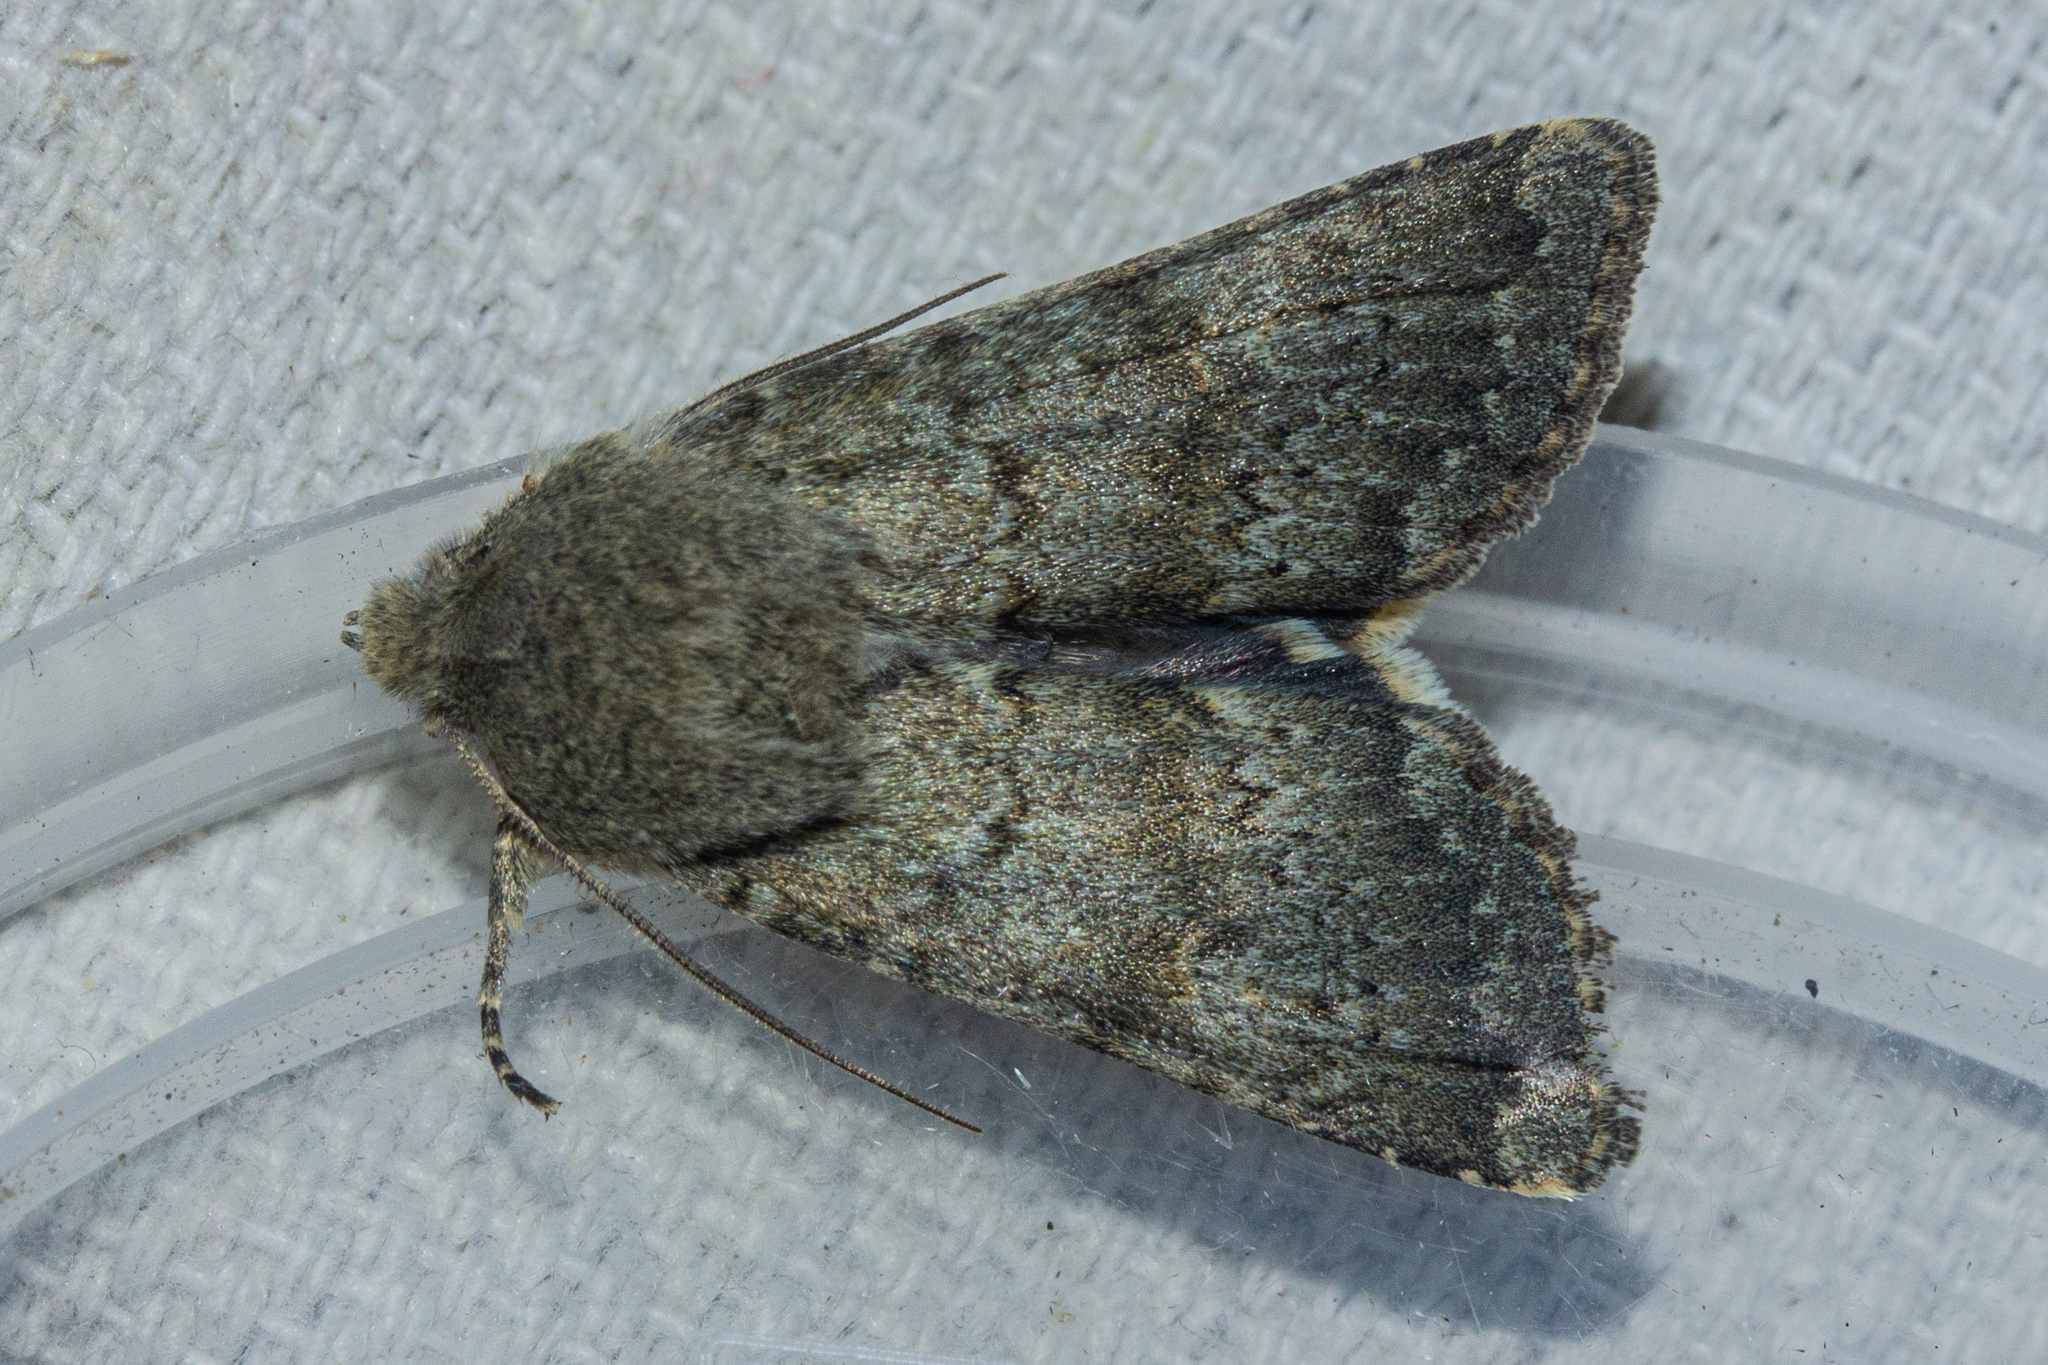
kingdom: Animalia
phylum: Arthropoda
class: Insecta
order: Lepidoptera
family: Noctuidae
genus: Ichneutica
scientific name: Ichneutica moderata
